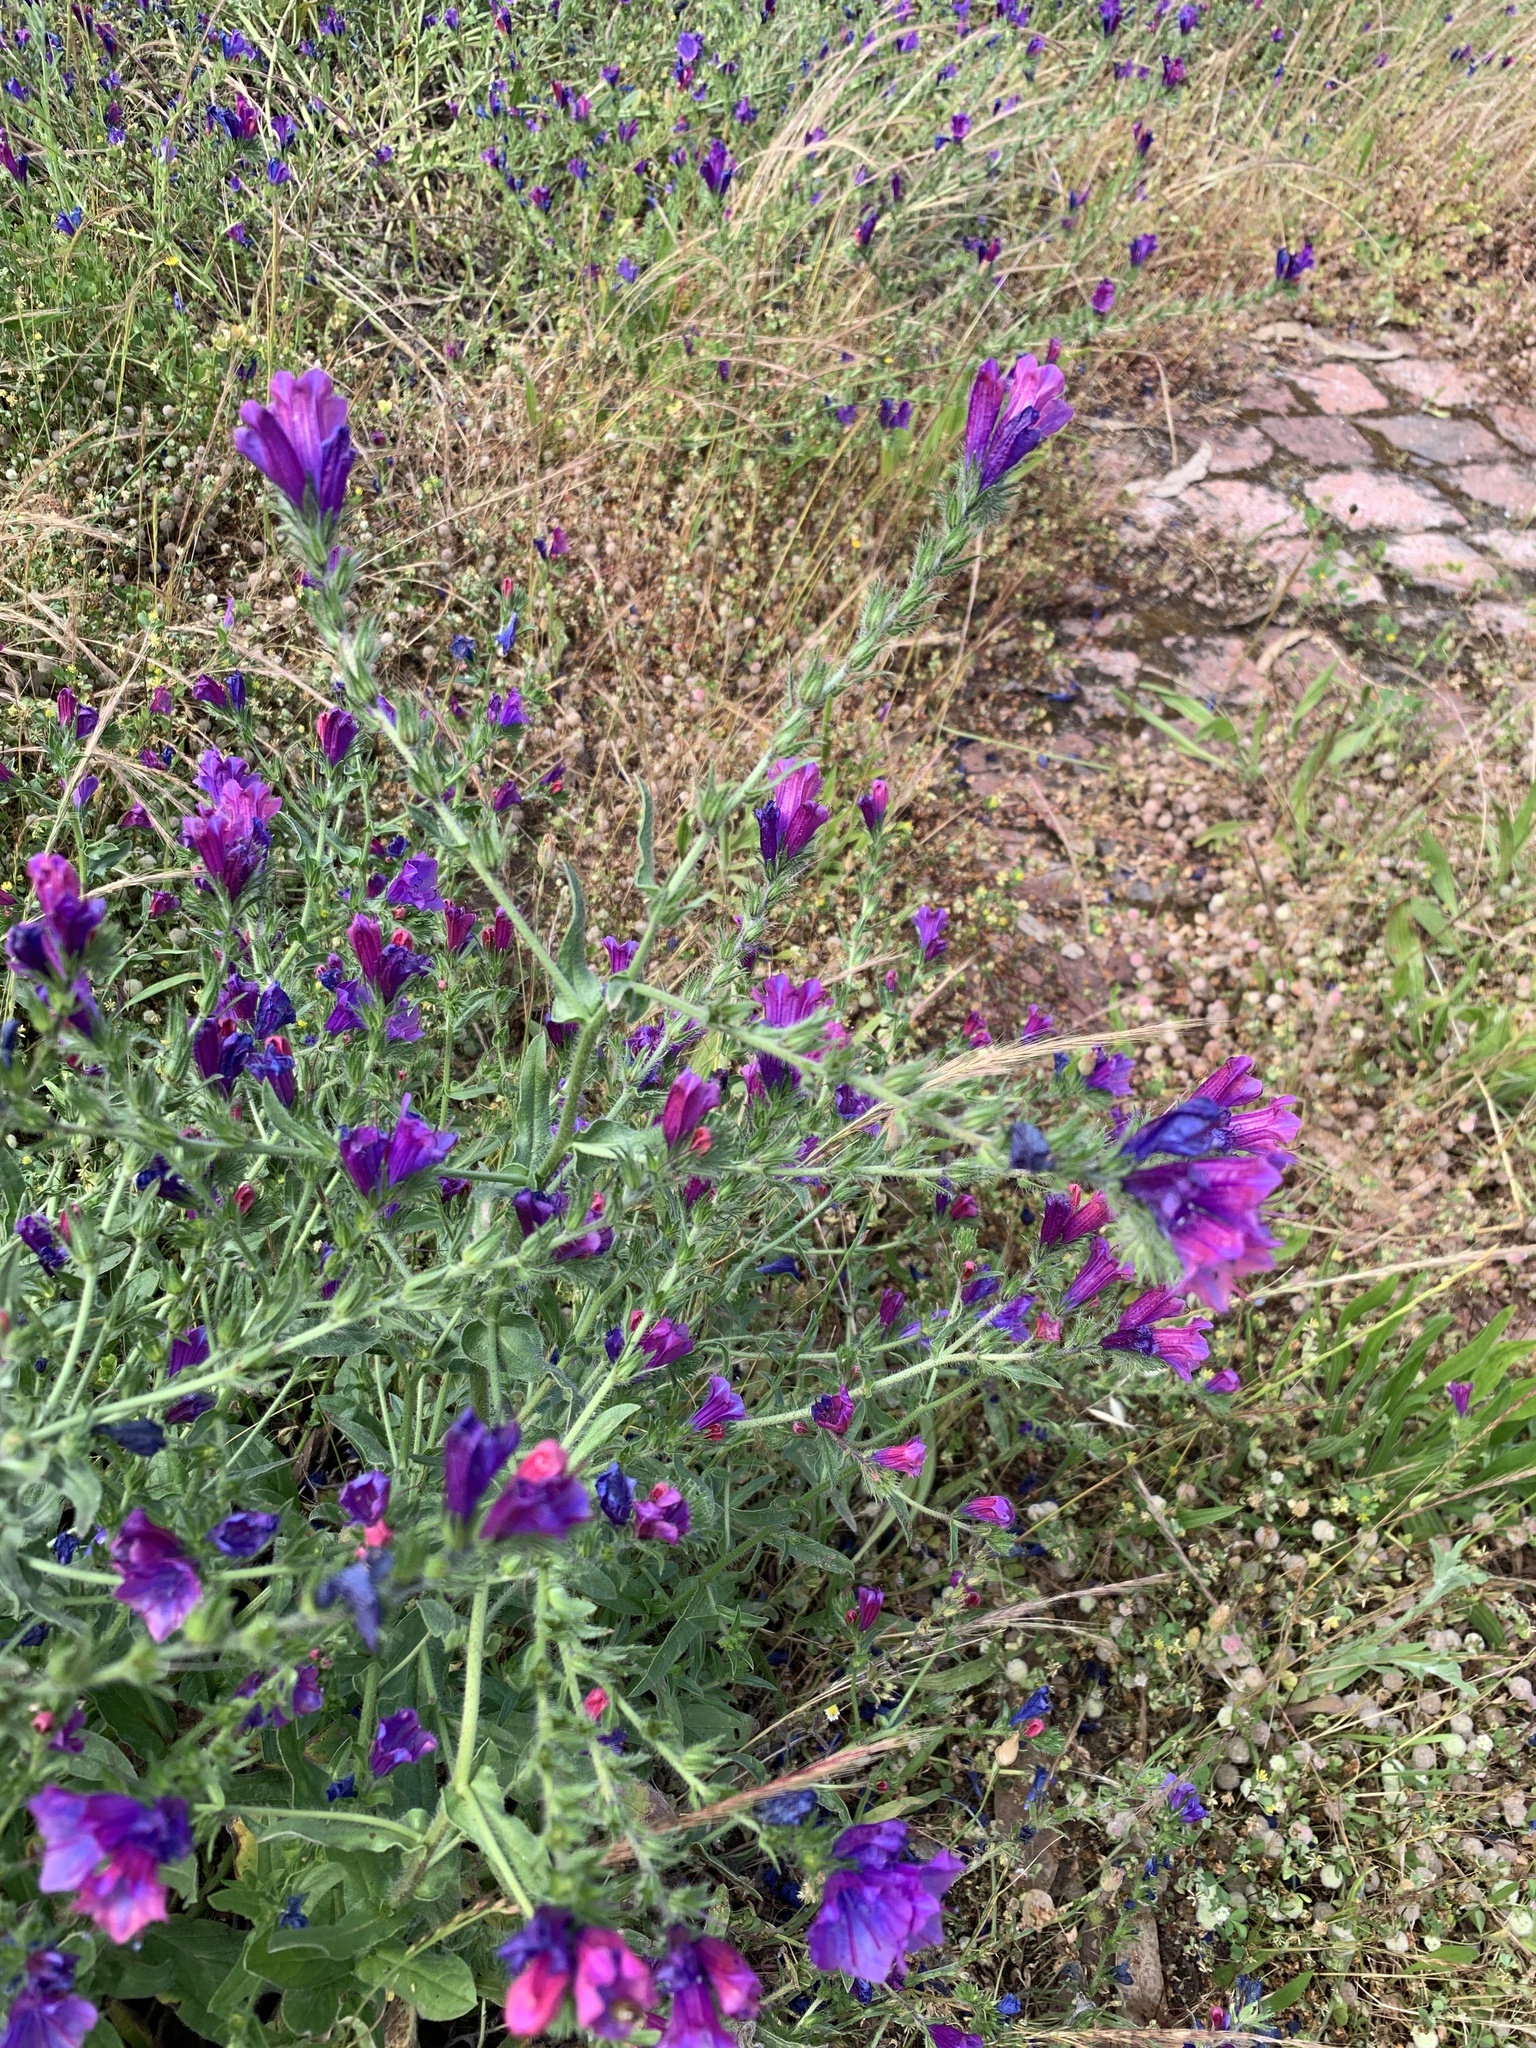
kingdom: Plantae
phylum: Tracheophyta
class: Magnoliopsida
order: Boraginales
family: Boraginaceae
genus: Echium
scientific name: Echium plantagineum
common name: Purple viper's-bugloss
